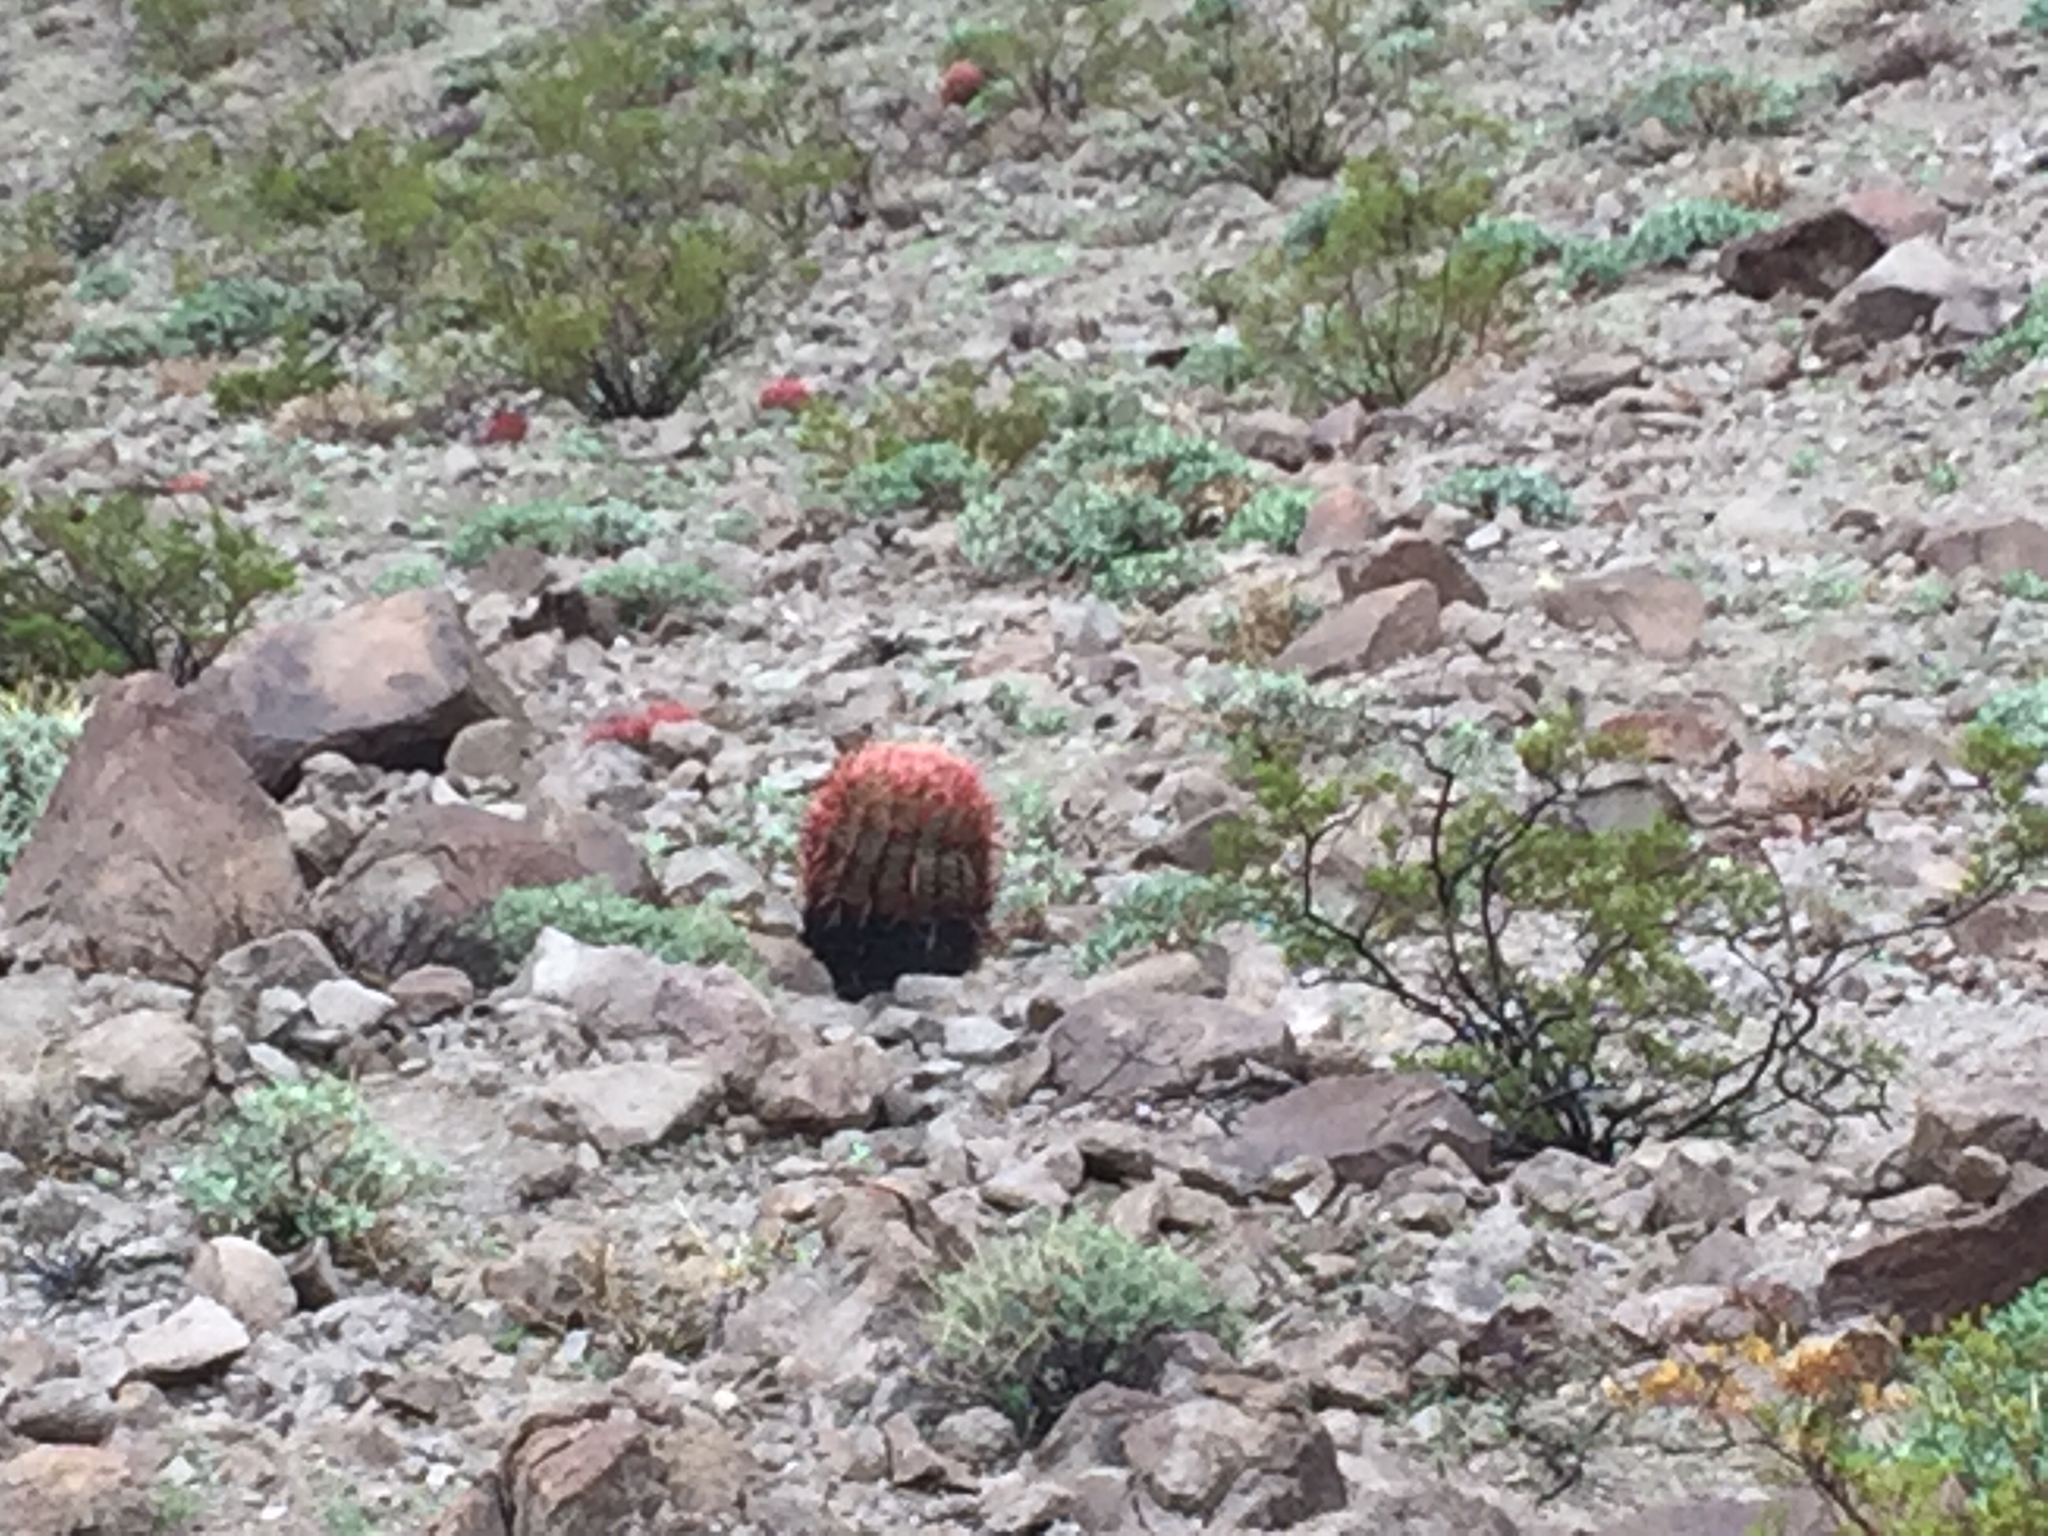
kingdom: Plantae
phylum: Tracheophyta
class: Magnoliopsida
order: Caryophyllales
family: Cactaceae
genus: Ferocactus
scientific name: Ferocactus cylindraceus
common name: California barrel cactus
